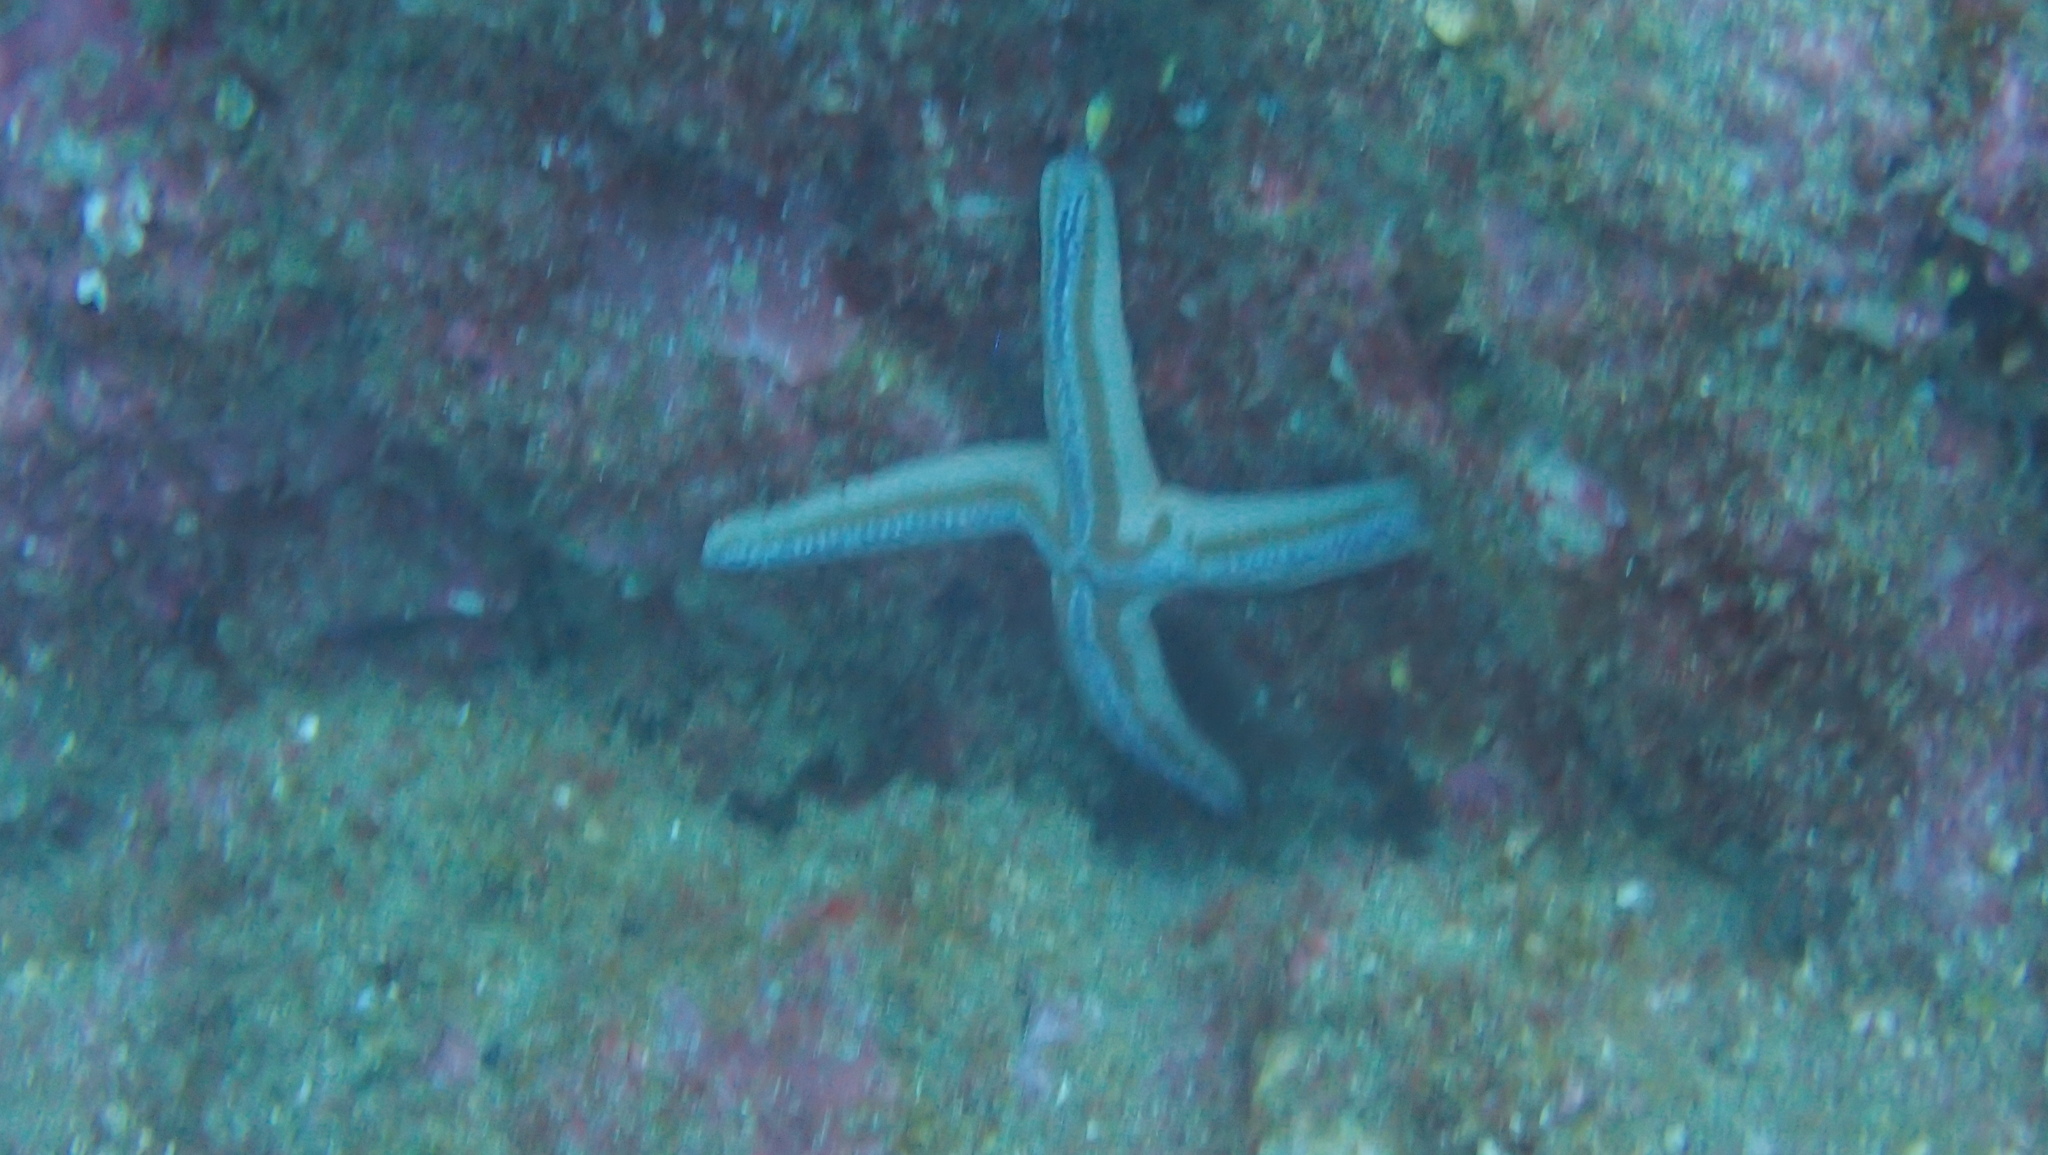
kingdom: Animalia
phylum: Echinodermata
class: Asteroidea
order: Valvatida
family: Ophidiasteridae
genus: Phataria
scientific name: Phataria unifascialis
